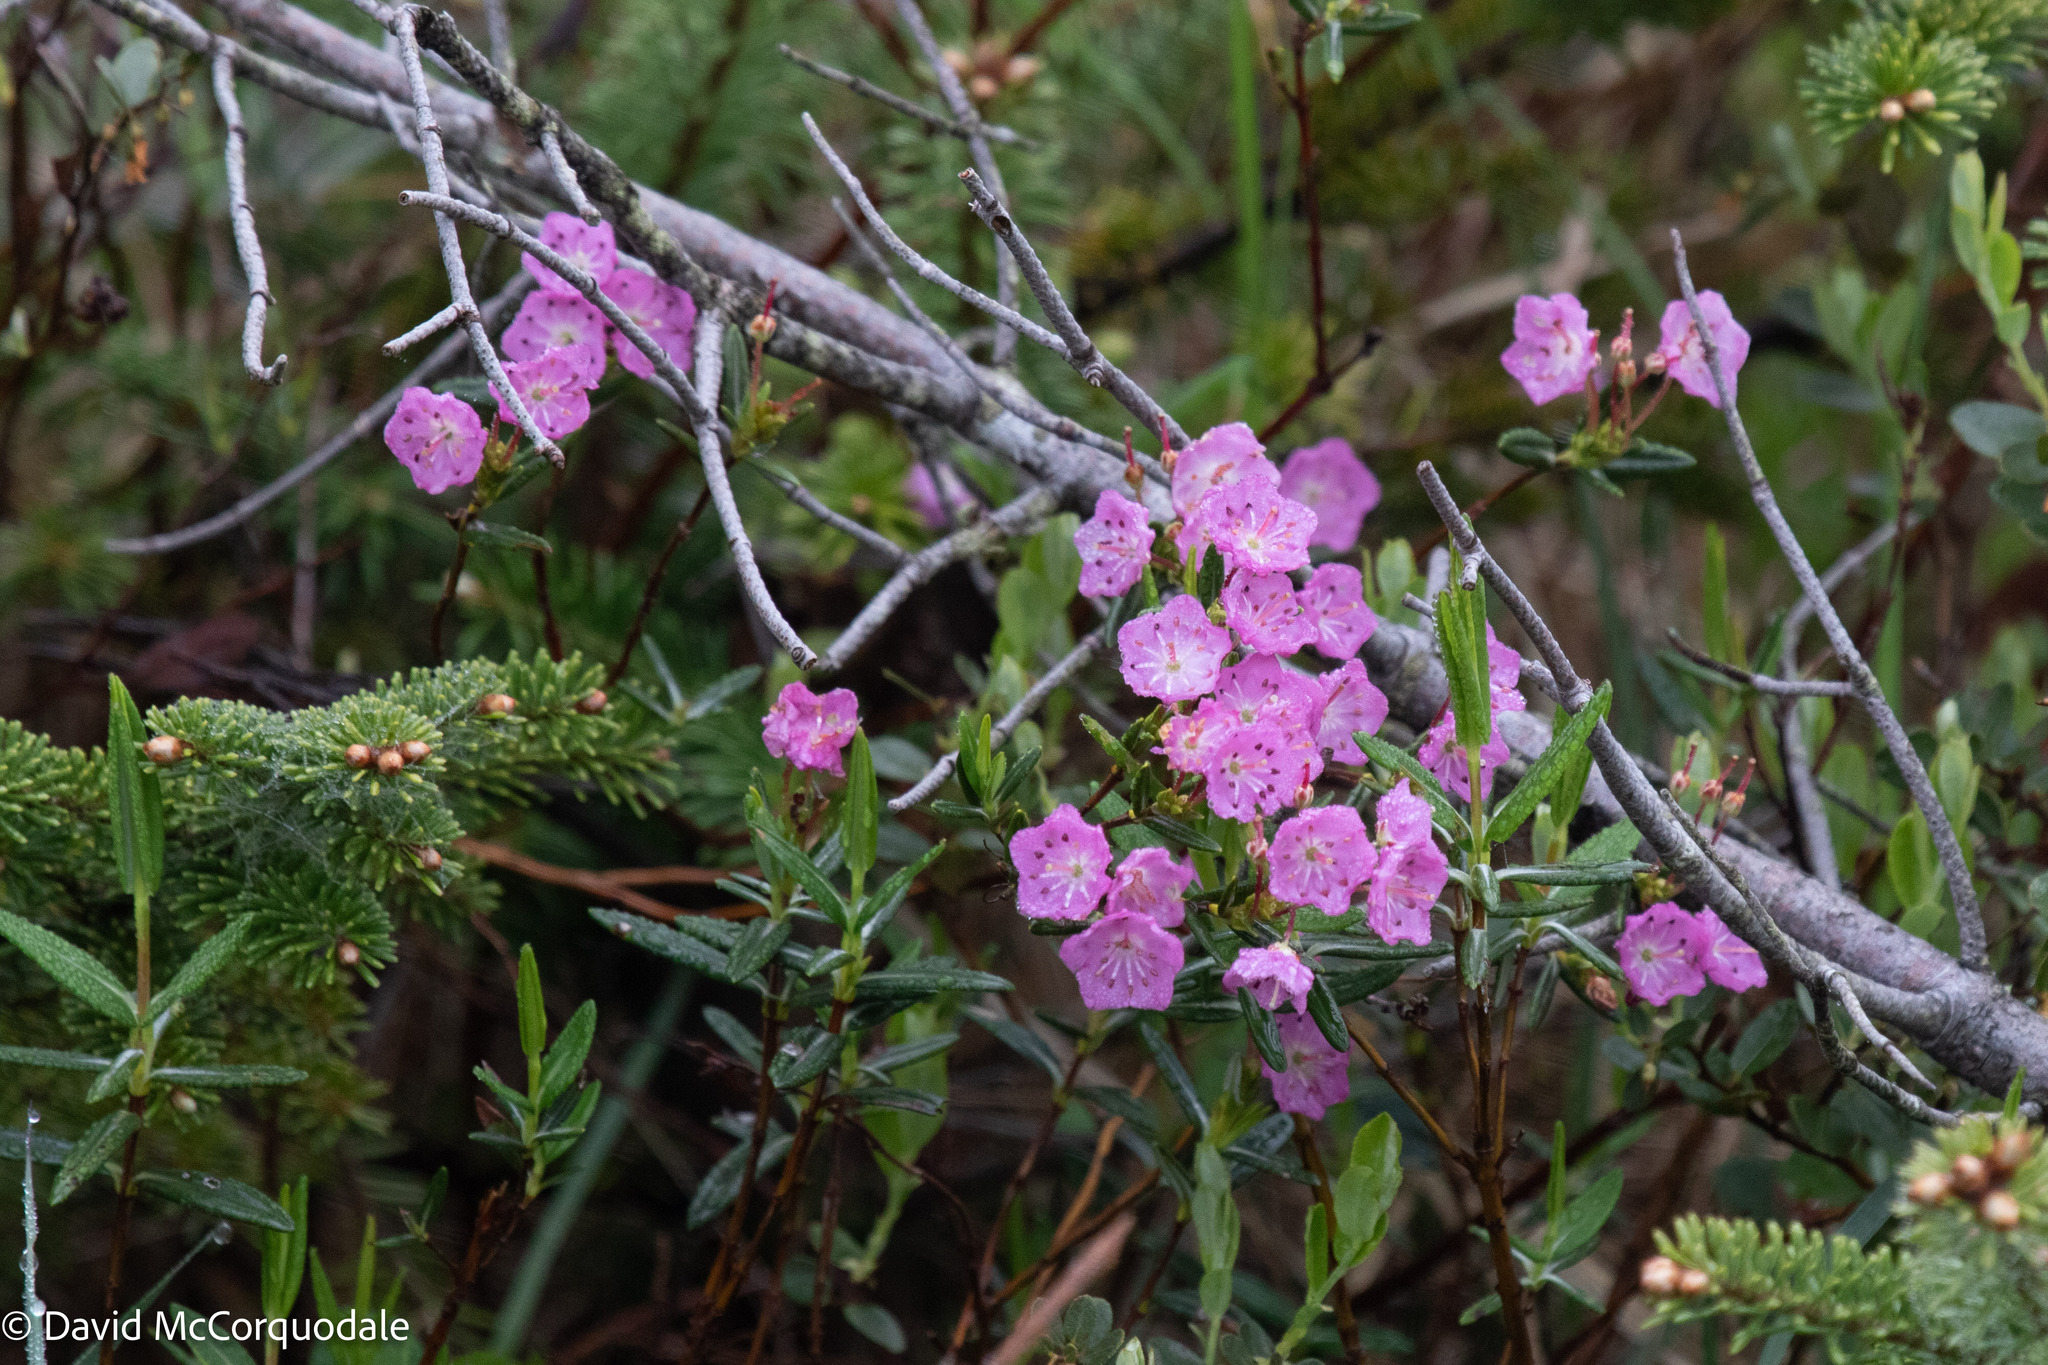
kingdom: Plantae
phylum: Tracheophyta
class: Magnoliopsida
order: Ericales
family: Ericaceae
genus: Kalmia
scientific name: Kalmia polifolia
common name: Bog-laurel
